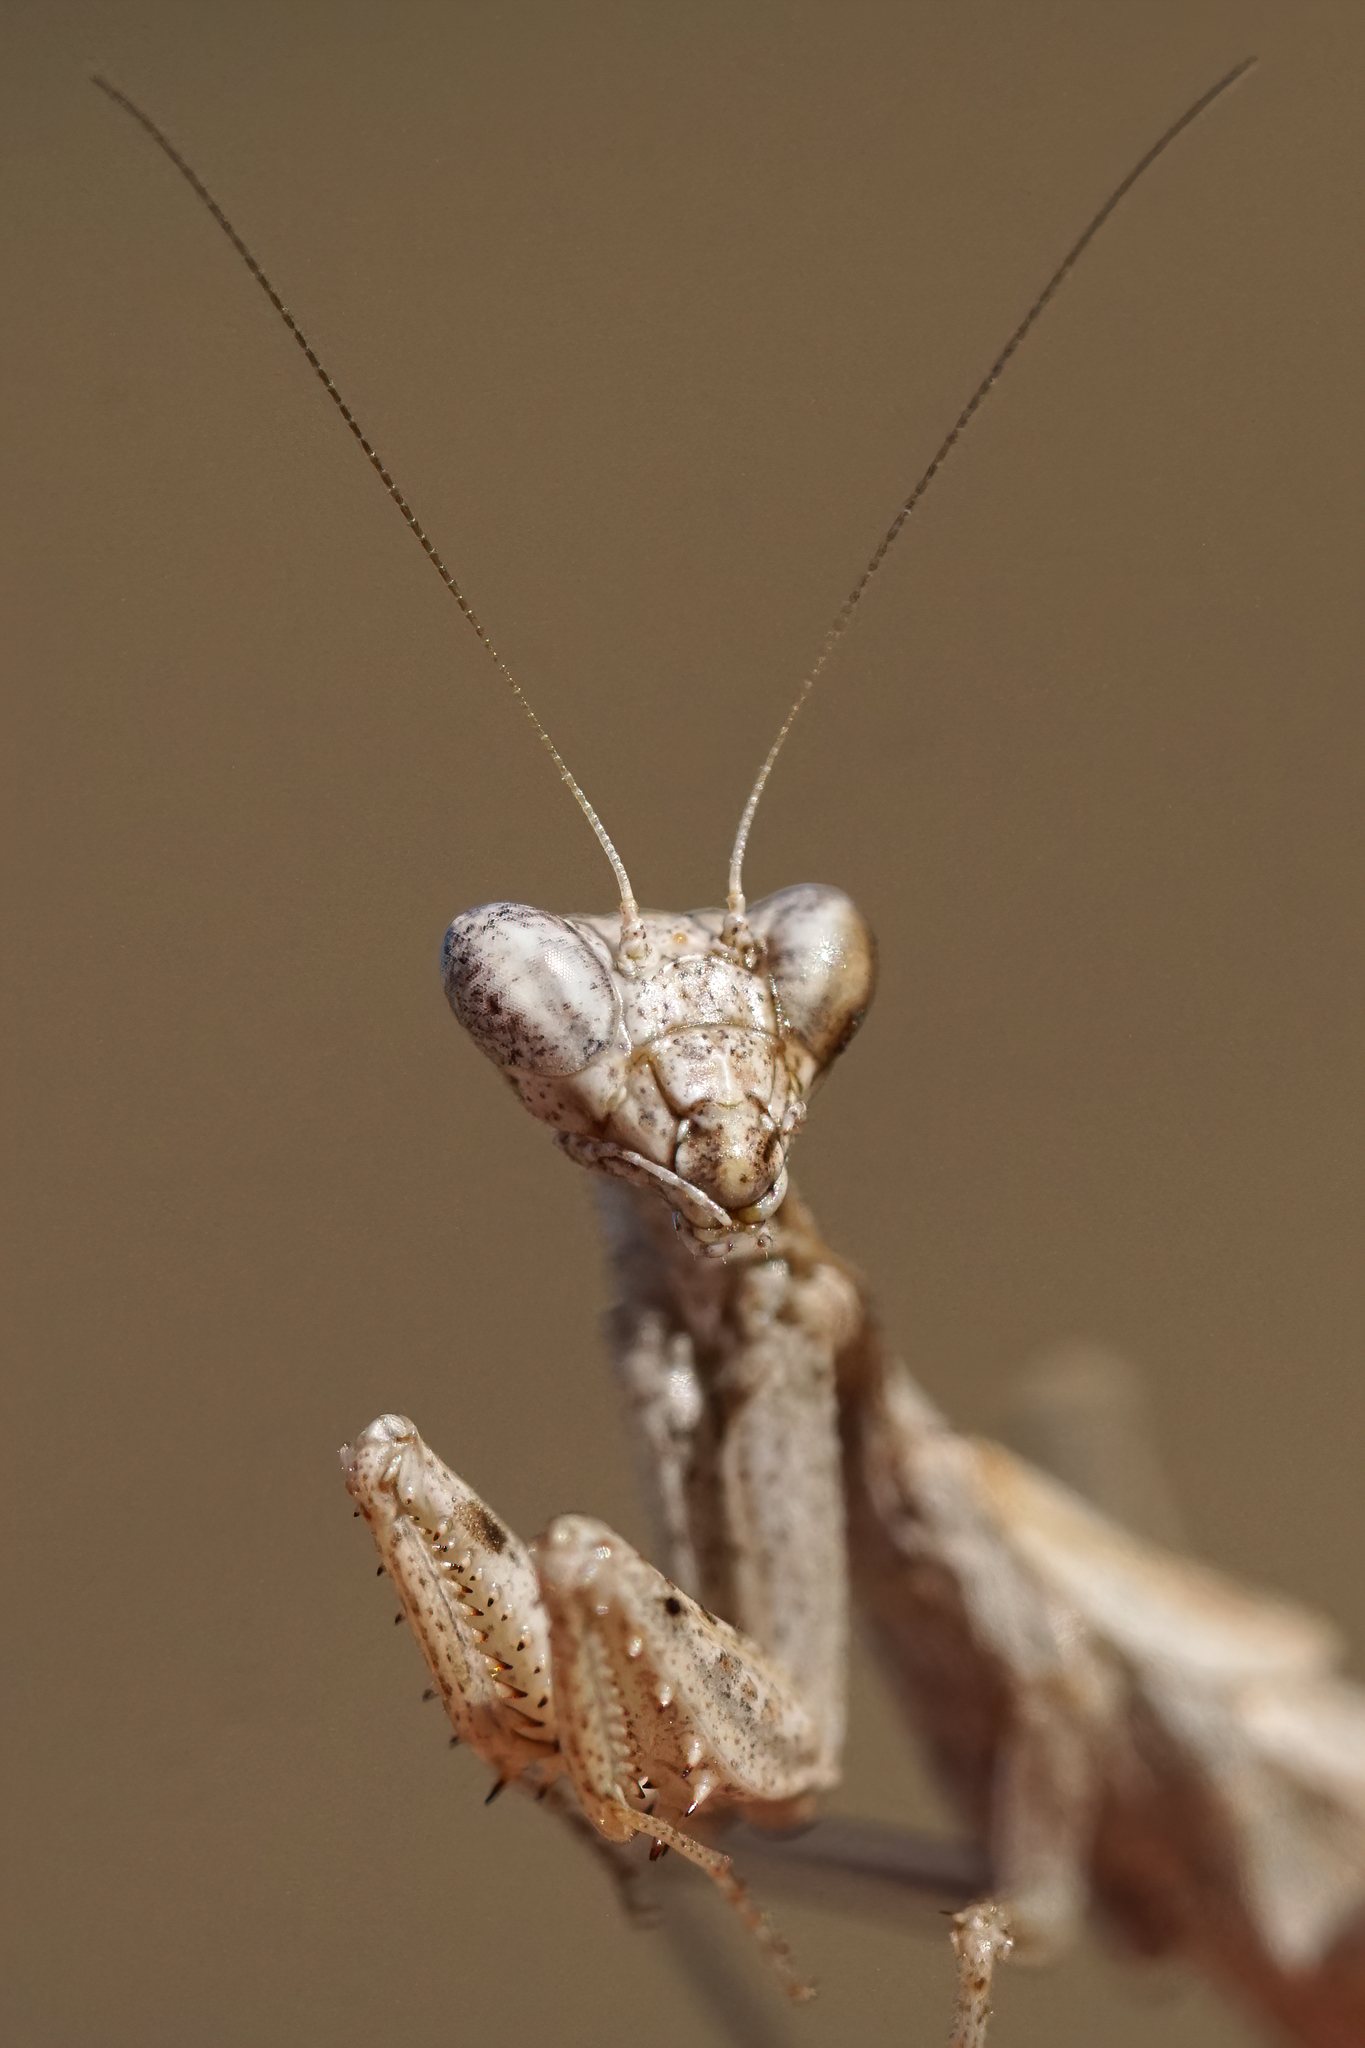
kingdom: Animalia
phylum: Arthropoda
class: Insecta
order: Mantodea
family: Amelidae
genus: Ameles
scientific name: Ameles decolor
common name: Dwarf mantis
